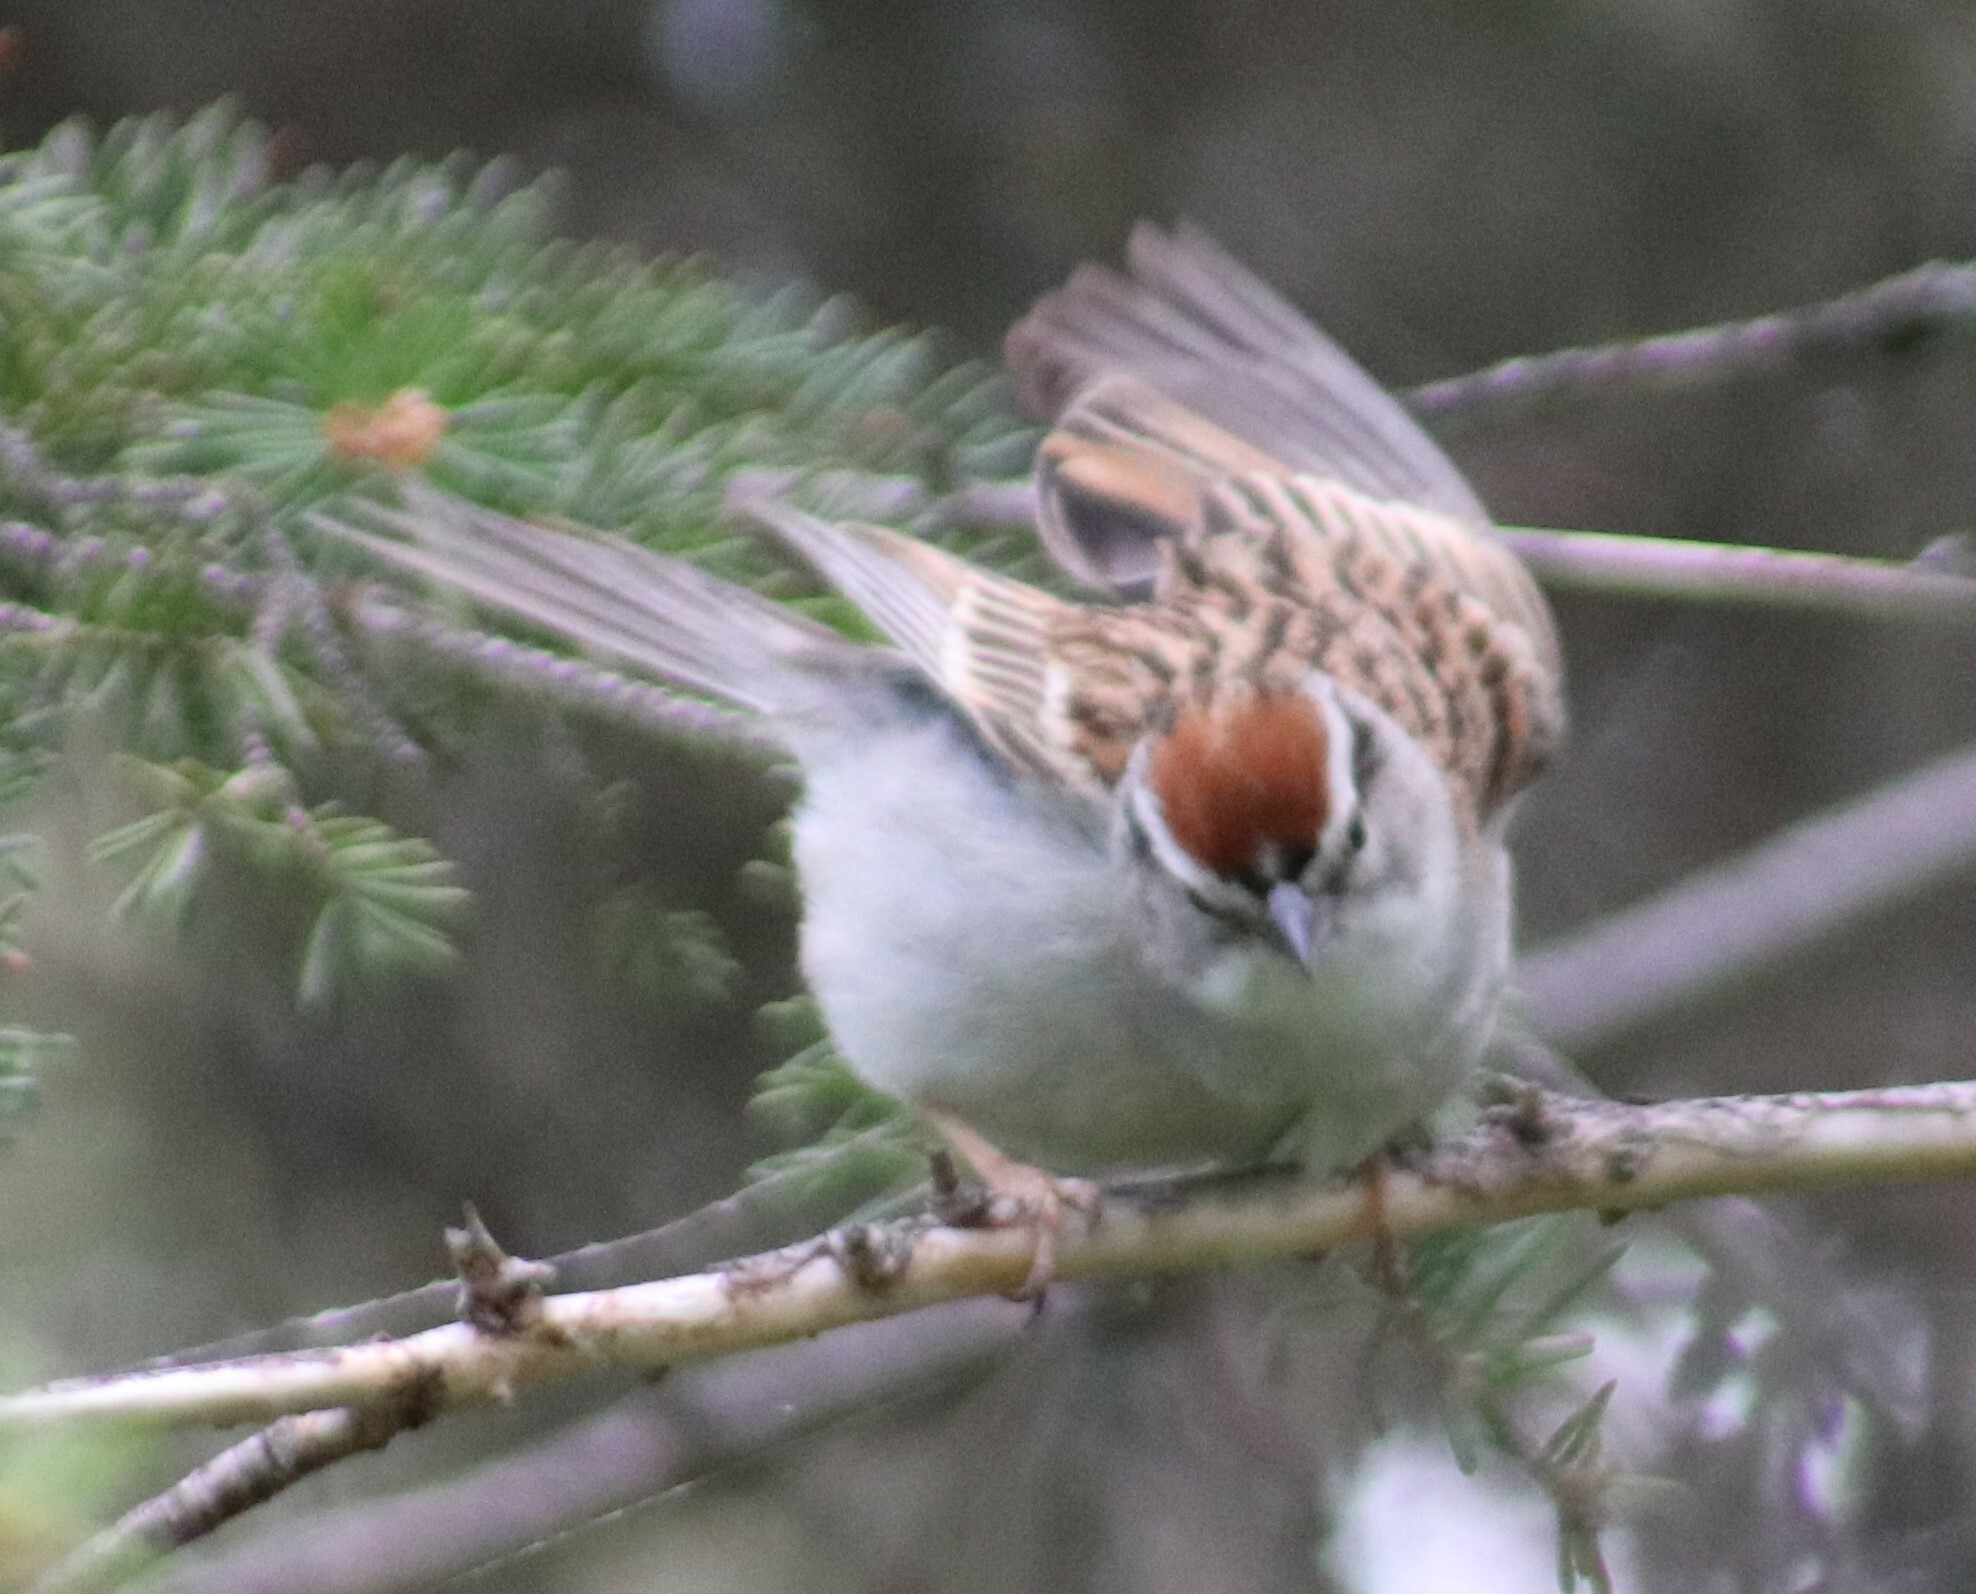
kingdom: Animalia
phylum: Chordata
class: Aves
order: Passeriformes
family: Passerellidae
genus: Spizella
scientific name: Spizella passerina
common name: Chipping sparrow
